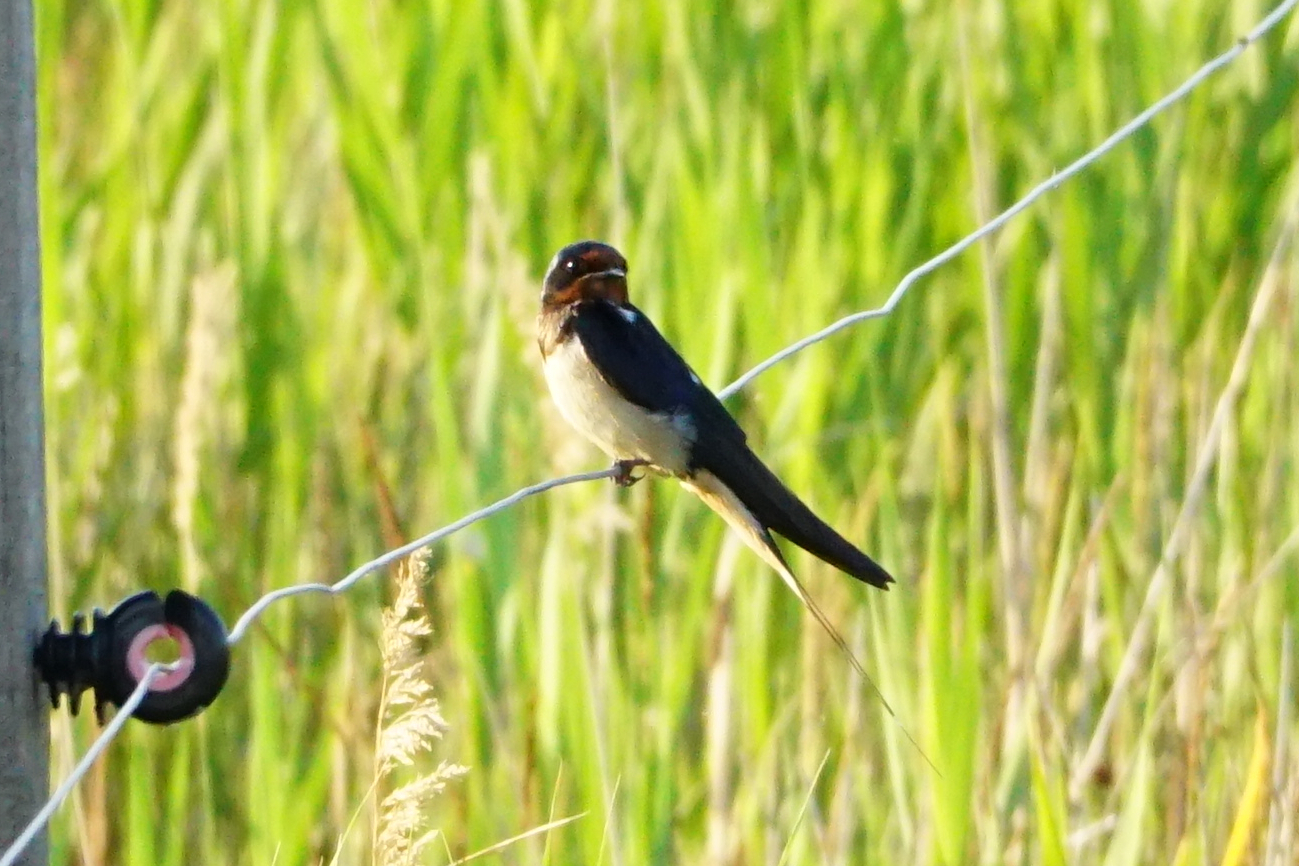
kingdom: Animalia
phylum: Chordata
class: Aves
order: Passeriformes
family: Hirundinidae
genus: Hirundo
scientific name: Hirundo rustica
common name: Barn swallow
